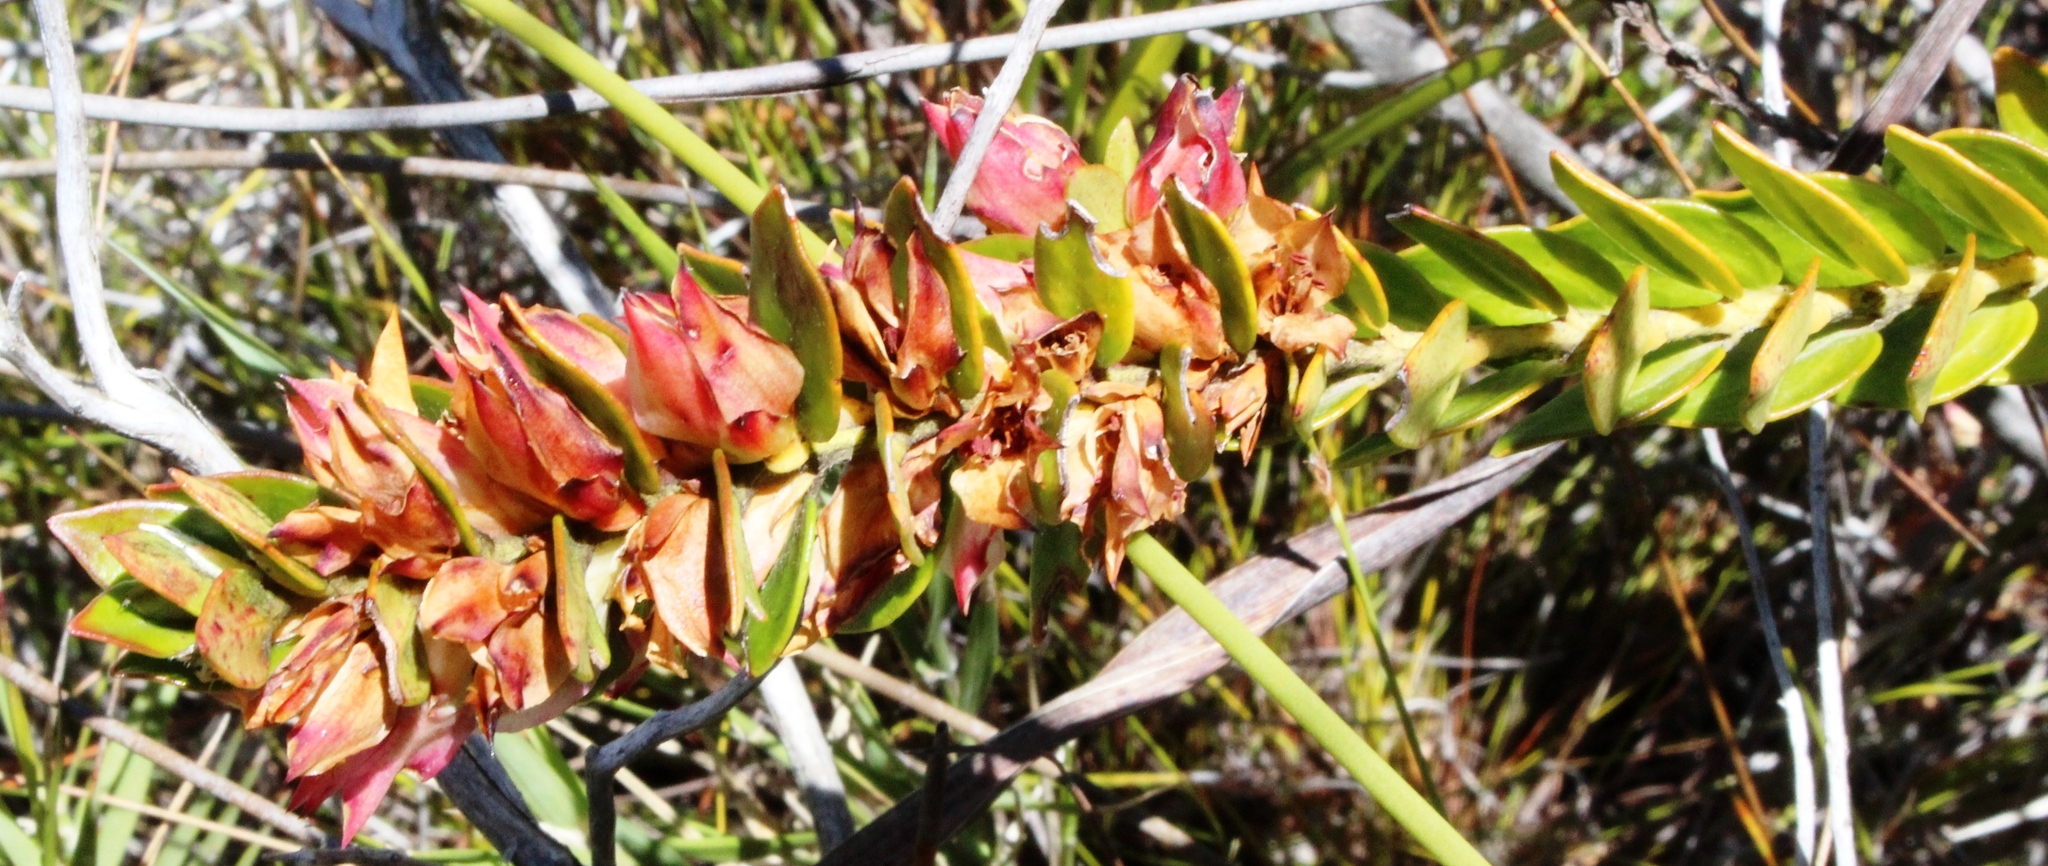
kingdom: Plantae
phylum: Tracheophyta
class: Magnoliopsida
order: Crossosomatales
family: Geissolomataceae
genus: Geissoloma
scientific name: Geissoloma marginata
